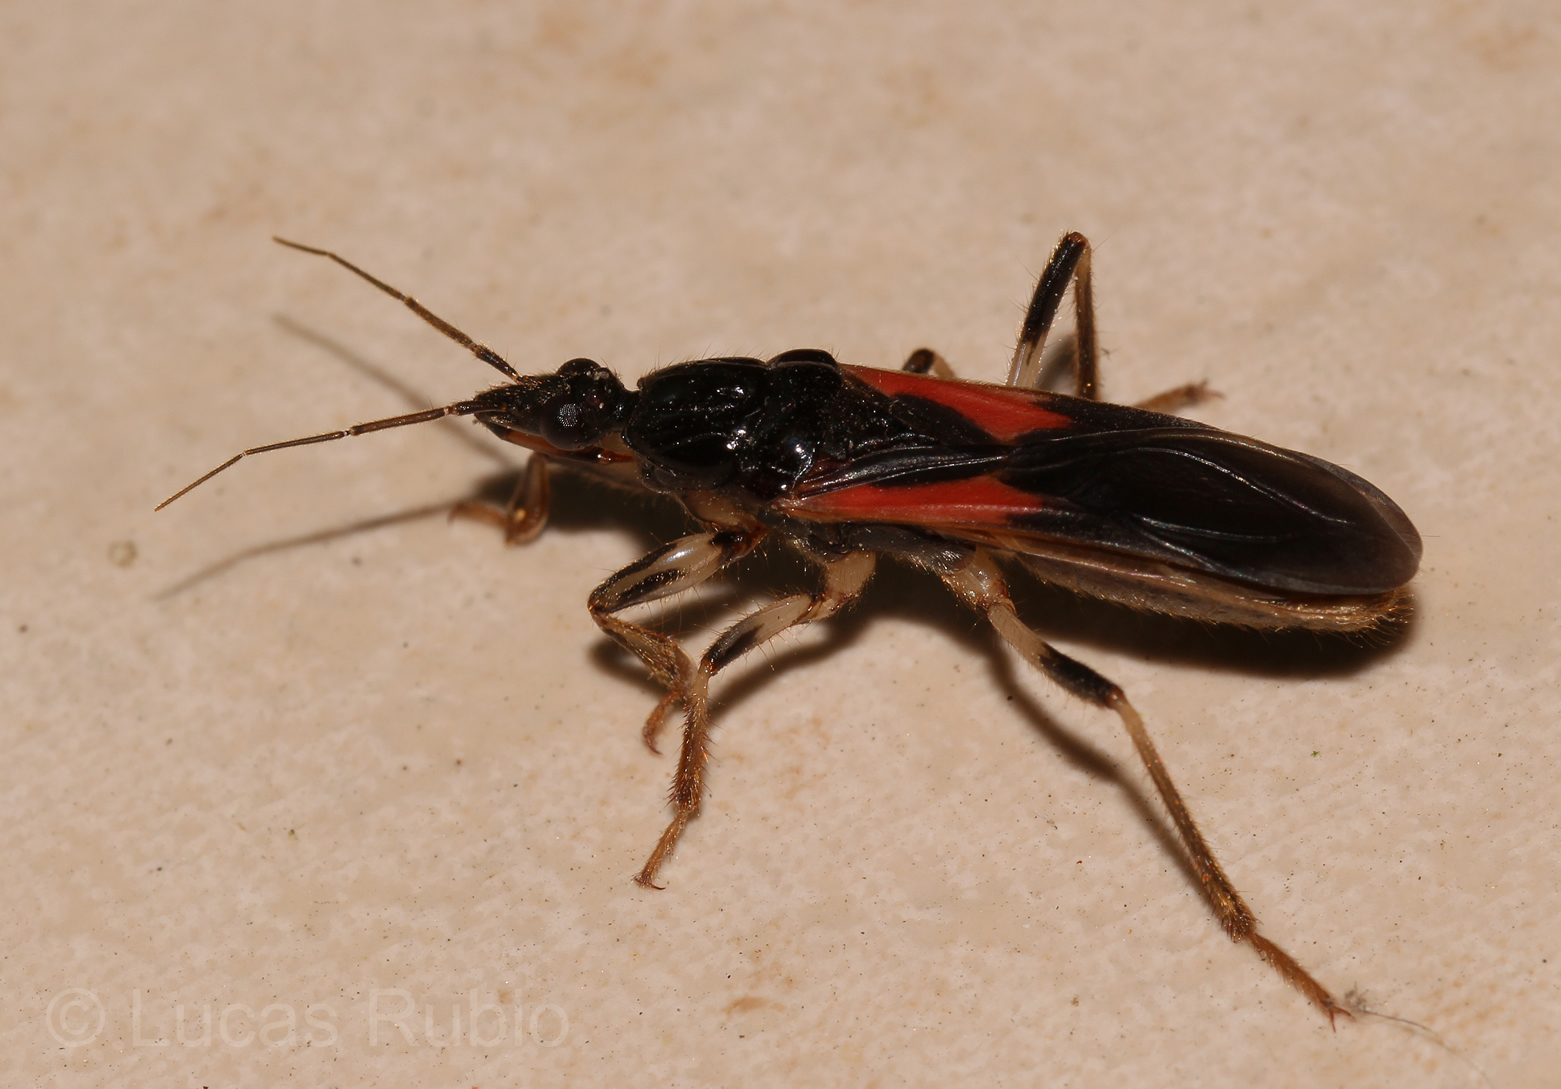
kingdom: Animalia
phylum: Arthropoda
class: Insecta
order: Hemiptera
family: Reduviidae
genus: Sirthenea
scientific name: Sirthenea stria
